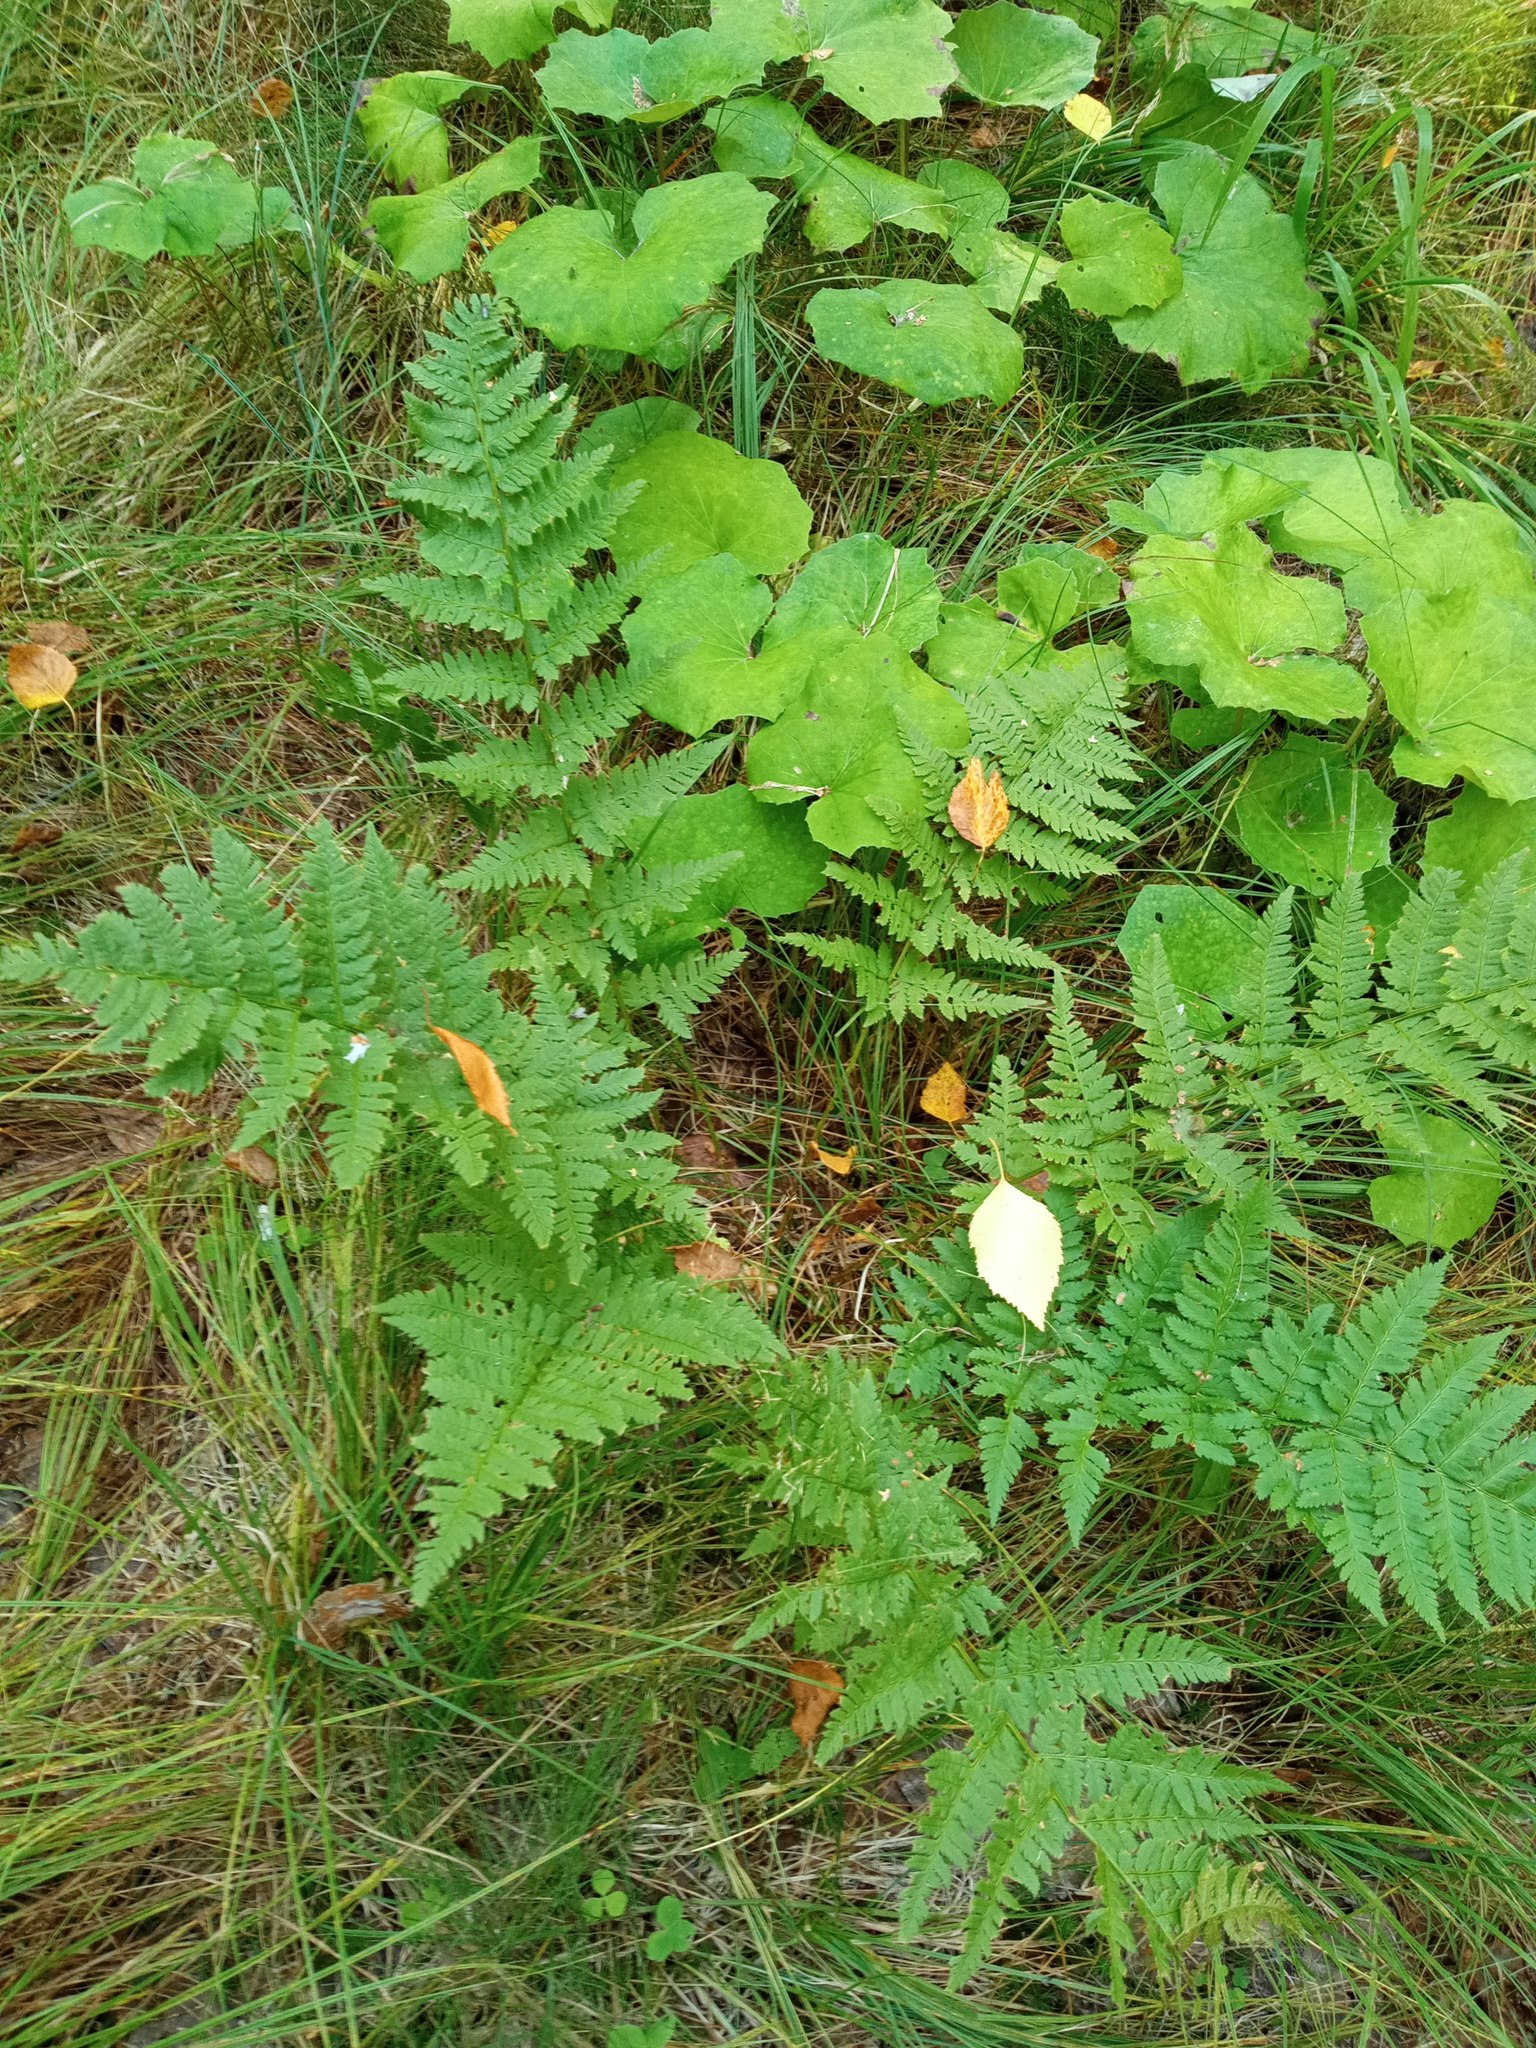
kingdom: Plantae
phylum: Tracheophyta
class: Polypodiopsida
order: Polypodiales
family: Dryopteridaceae
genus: Dryopteris
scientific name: Dryopteris carthusiana
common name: Narrow buckler-fern
